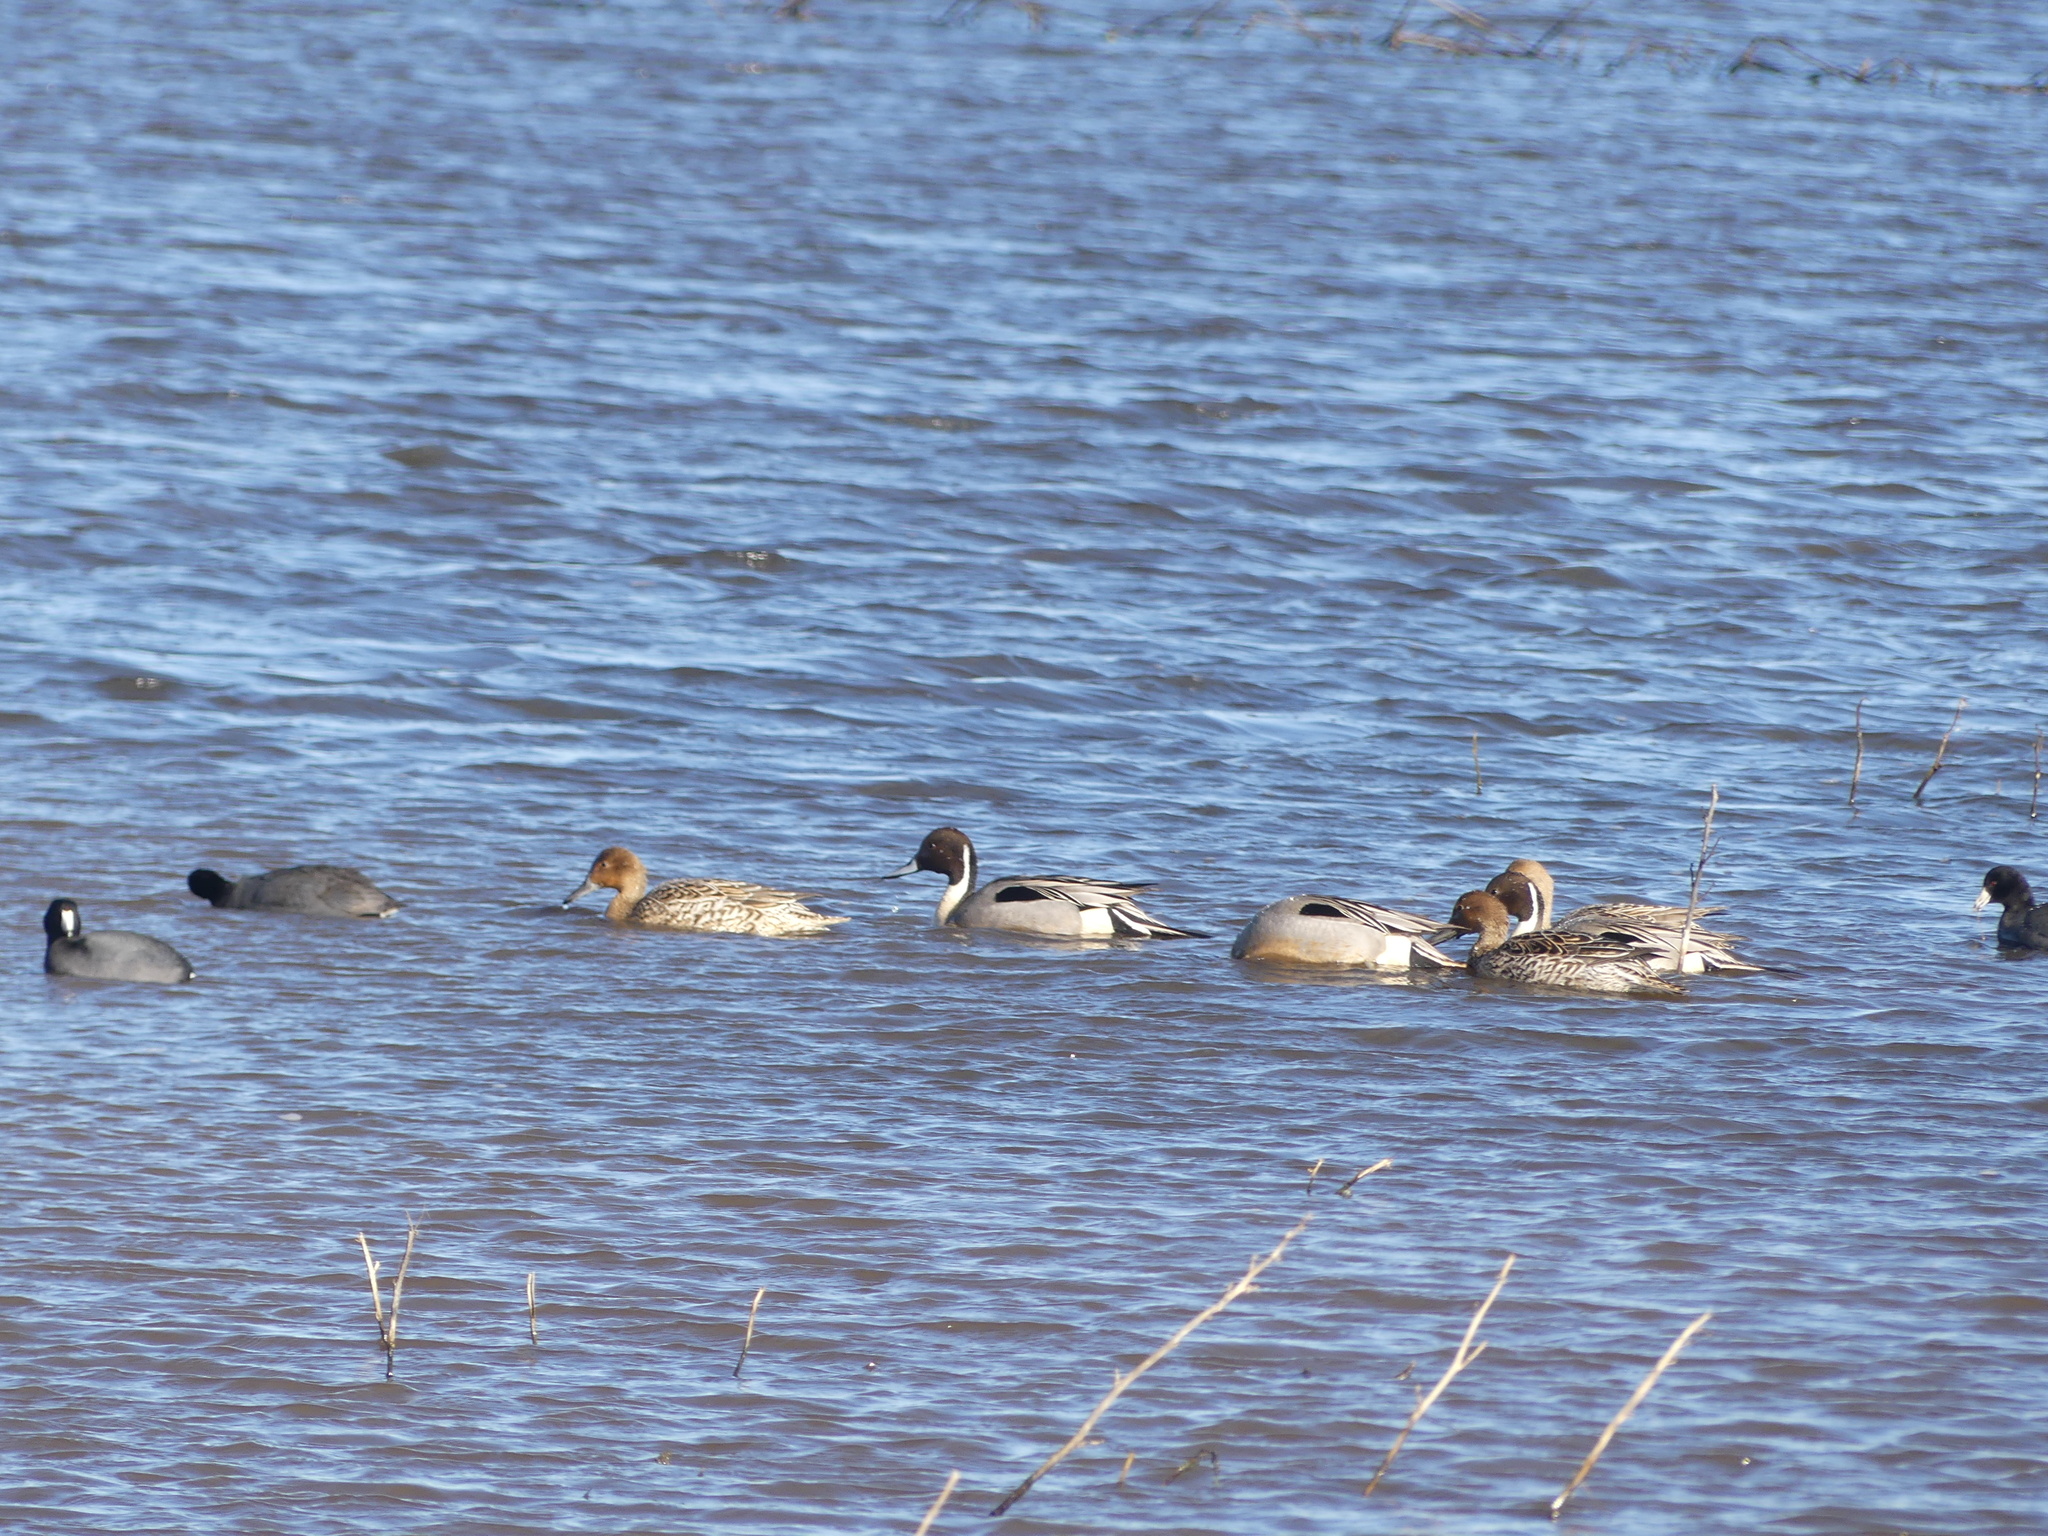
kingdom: Animalia
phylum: Chordata
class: Aves
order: Anseriformes
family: Anatidae
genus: Anas
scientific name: Anas acuta
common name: Northern pintail
